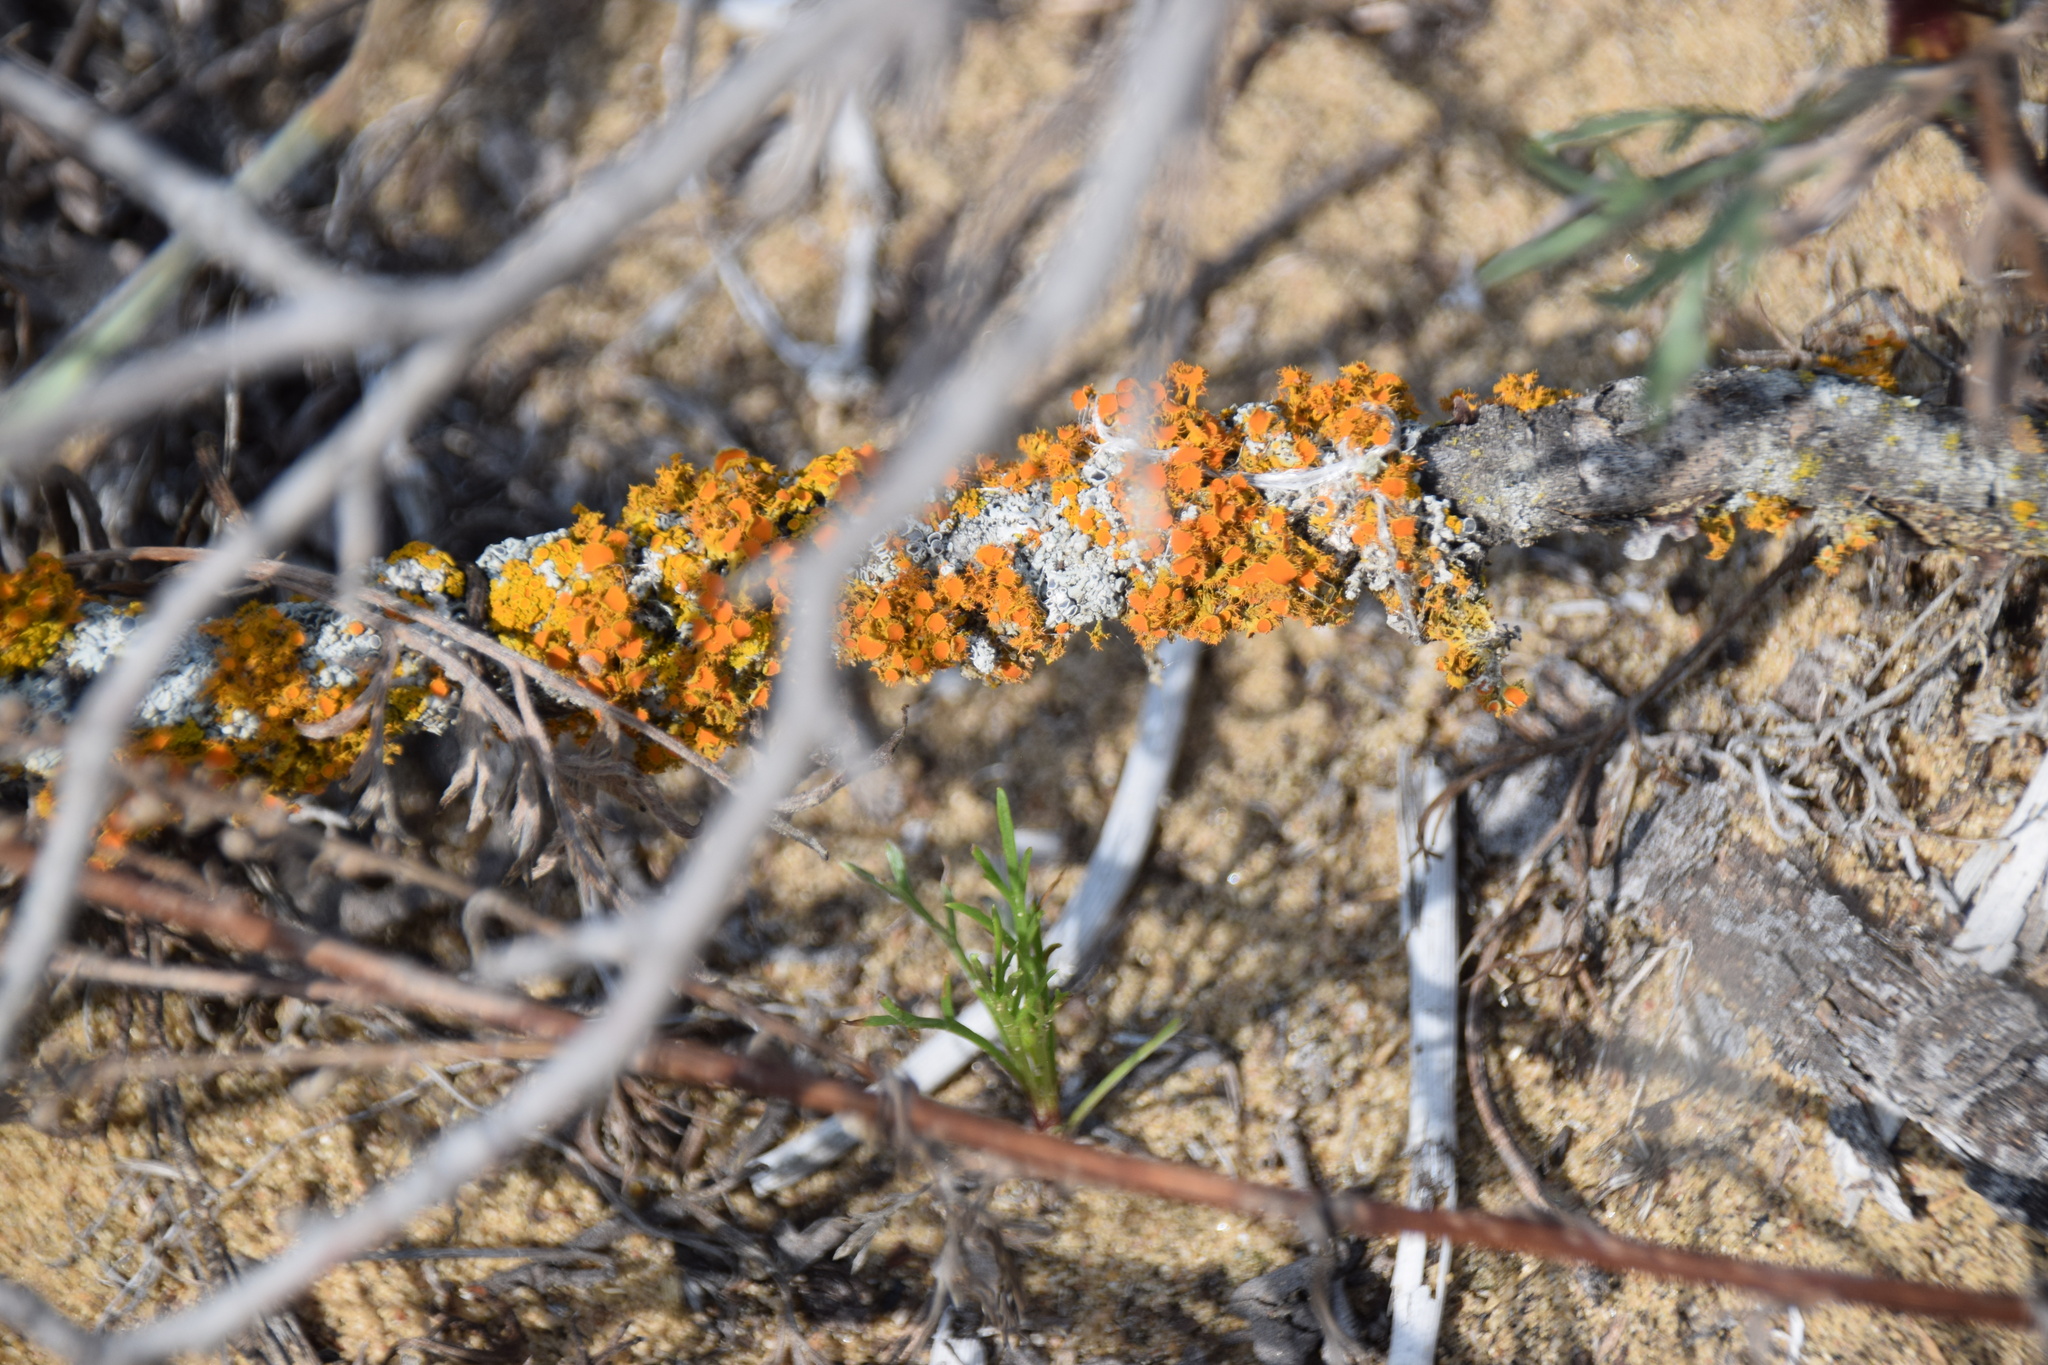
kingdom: Fungi
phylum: Ascomycota
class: Lecanoromycetes
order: Teloschistales
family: Teloschistaceae
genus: Niorma
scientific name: Niorma chrysophthalma
